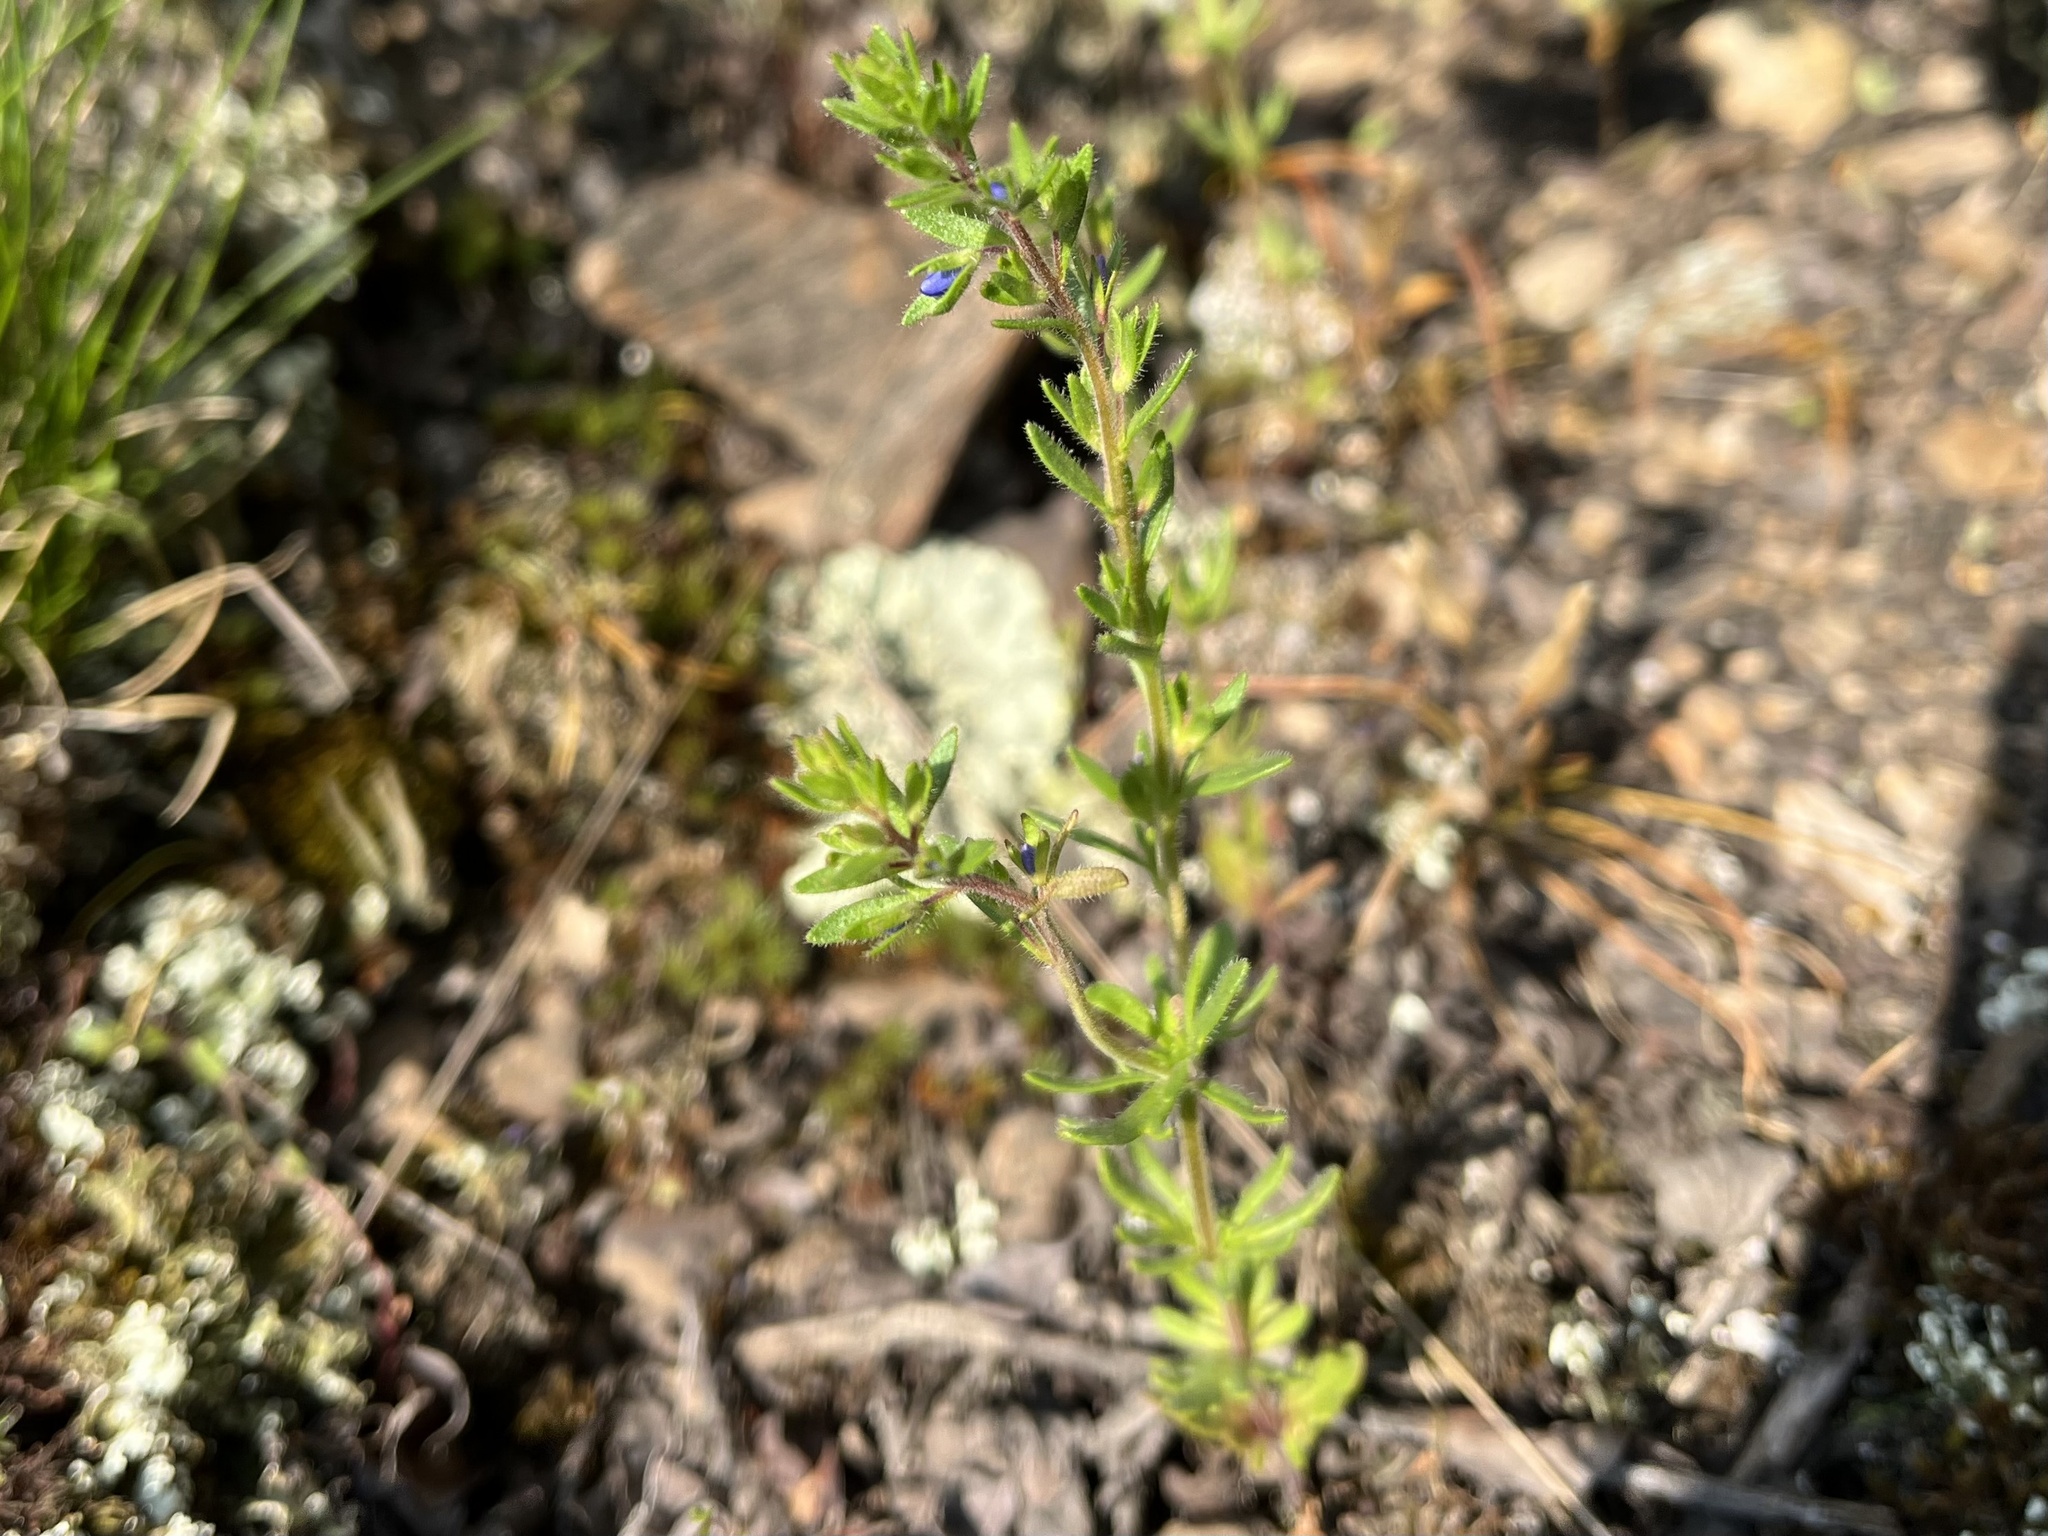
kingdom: Plantae
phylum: Tracheophyta
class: Magnoliopsida
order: Lamiales
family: Plantaginaceae
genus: Veronica
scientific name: Veronica verna
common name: Spring speedwell
